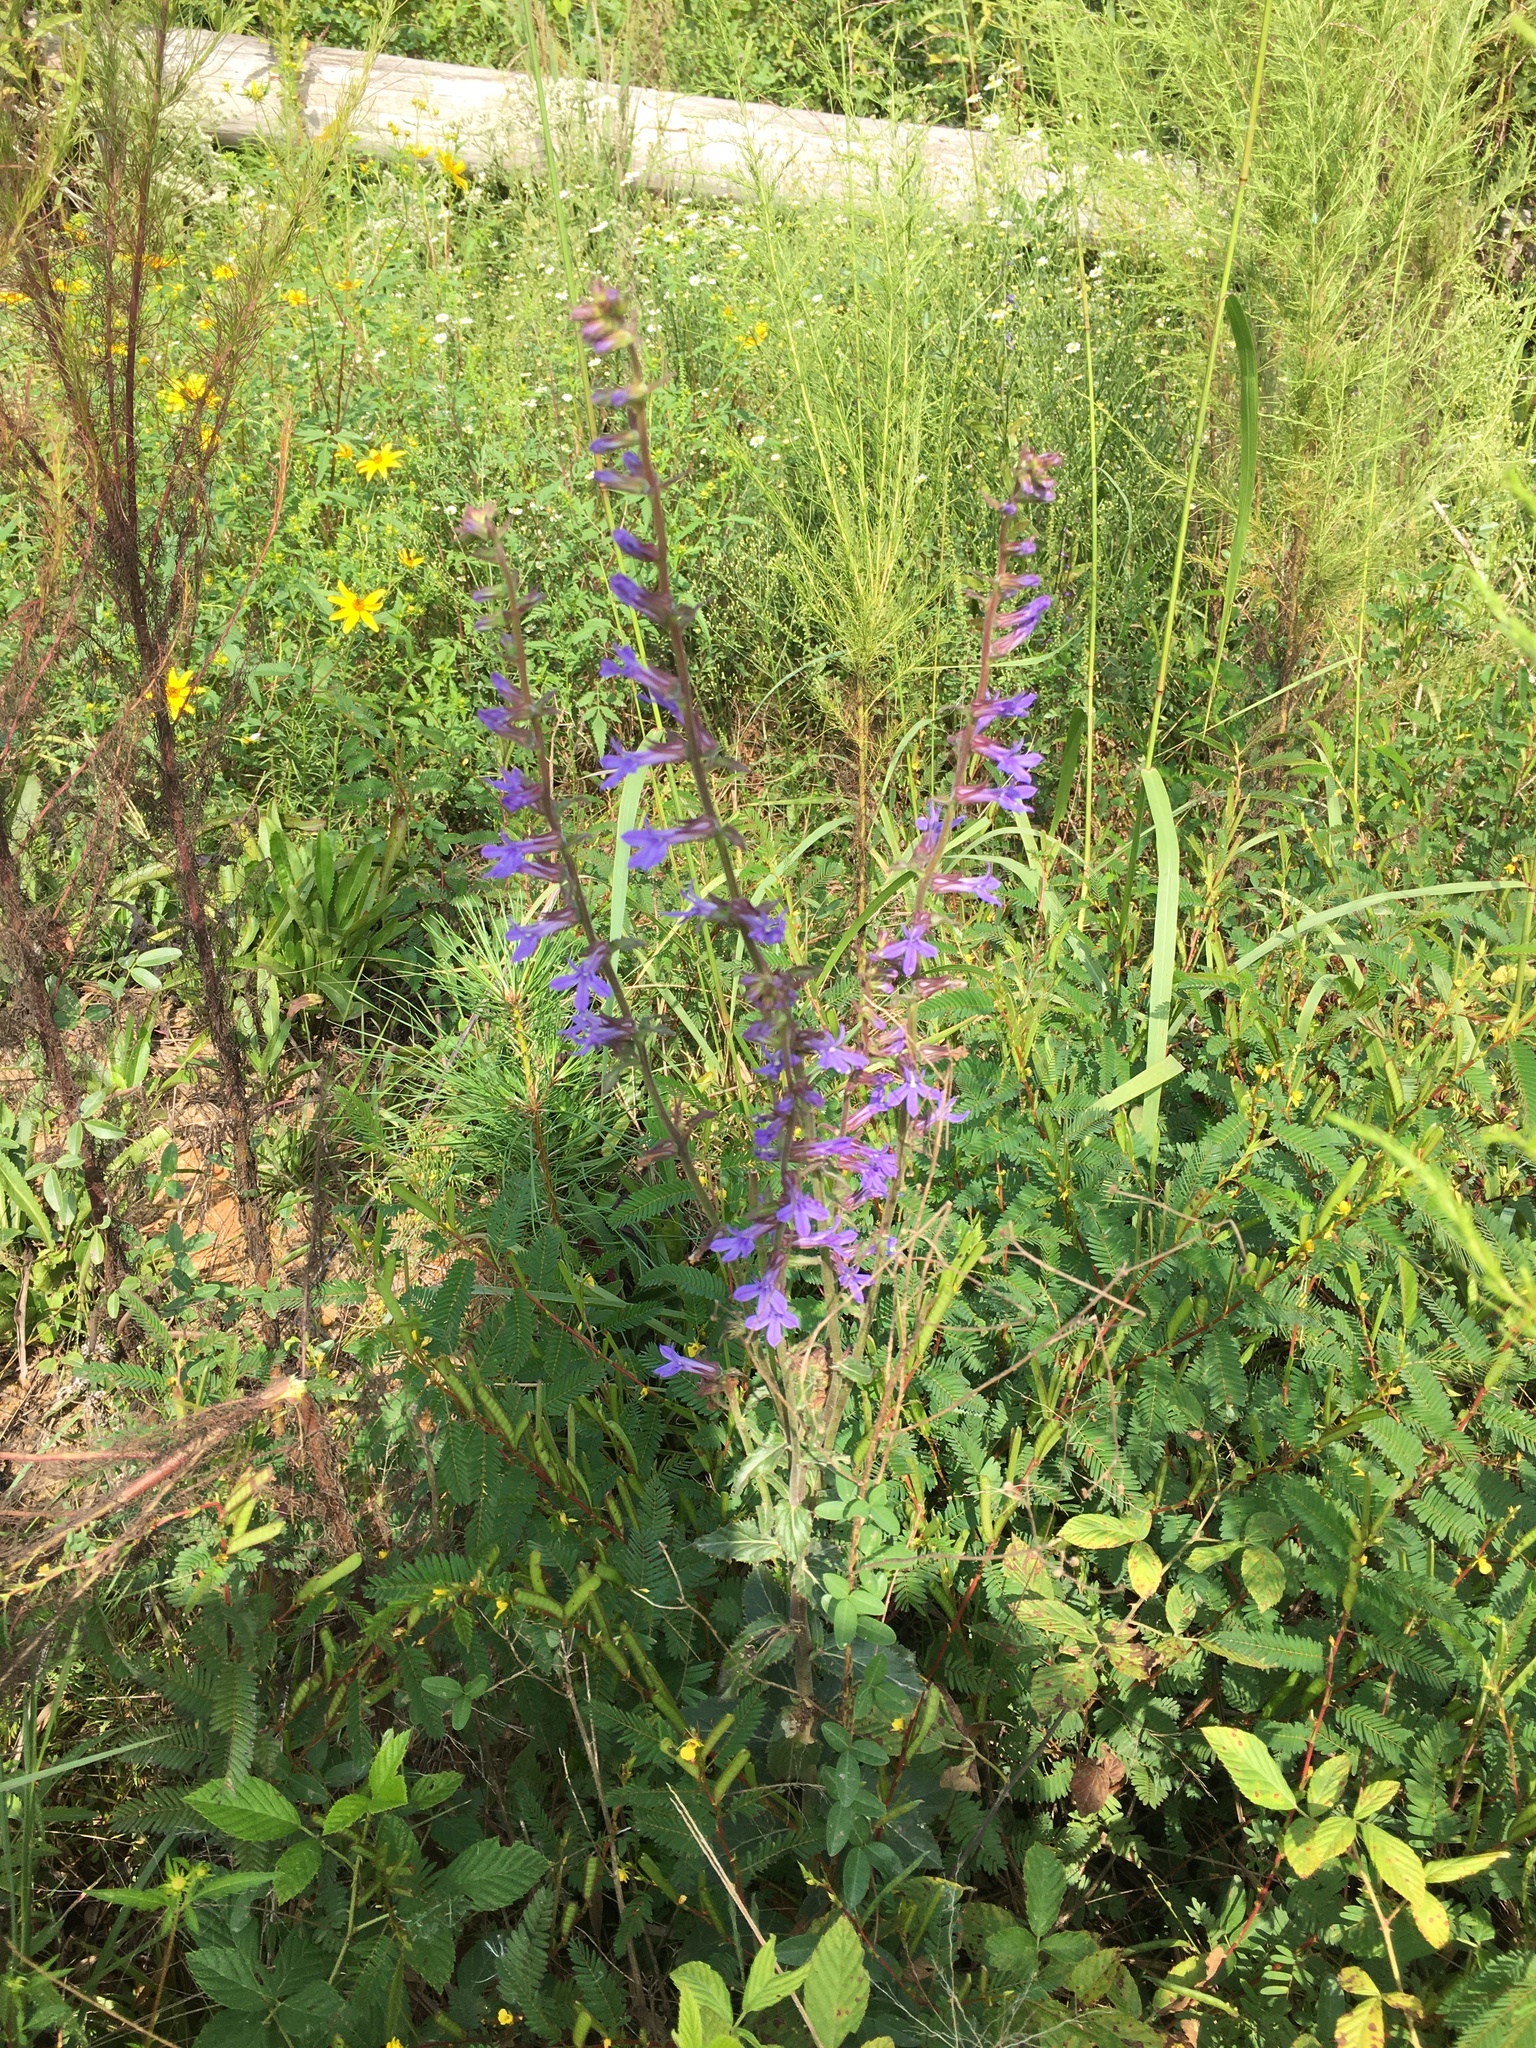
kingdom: Plantae
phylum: Tracheophyta
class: Magnoliopsida
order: Asterales
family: Campanulaceae
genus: Lobelia
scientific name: Lobelia puberula
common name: Purple dewdrop
